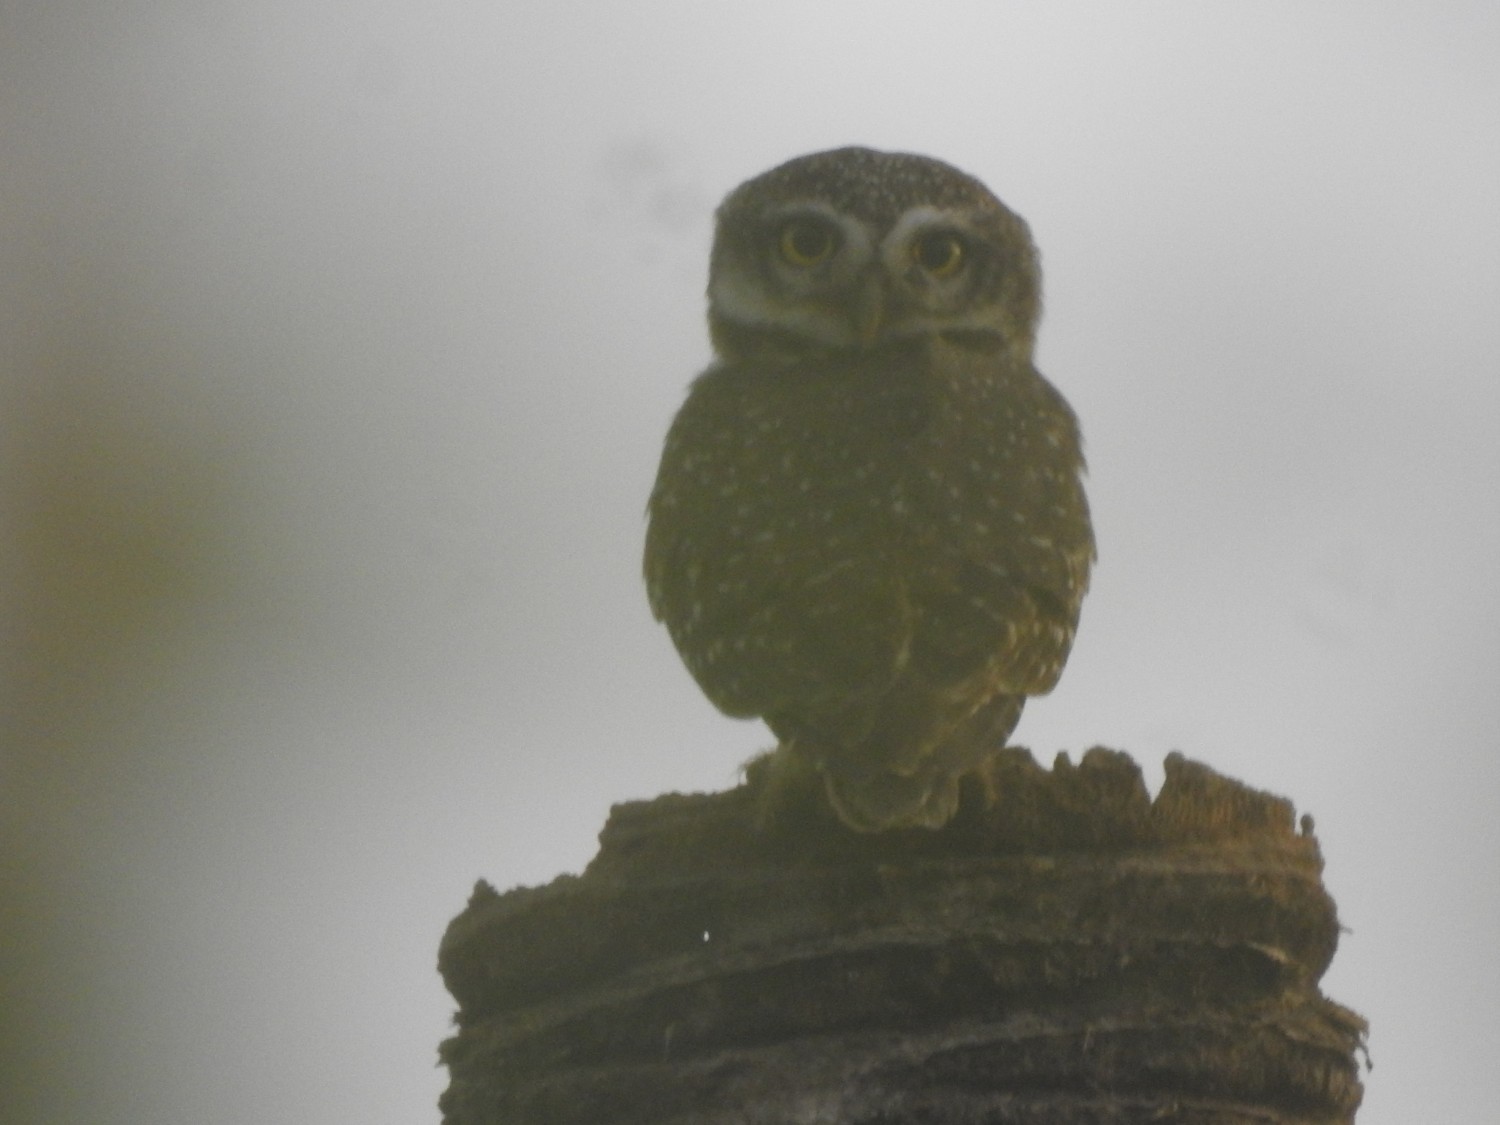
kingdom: Animalia
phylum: Chordata
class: Aves
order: Strigiformes
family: Strigidae
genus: Athene
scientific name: Athene brama
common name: Spotted owlet
